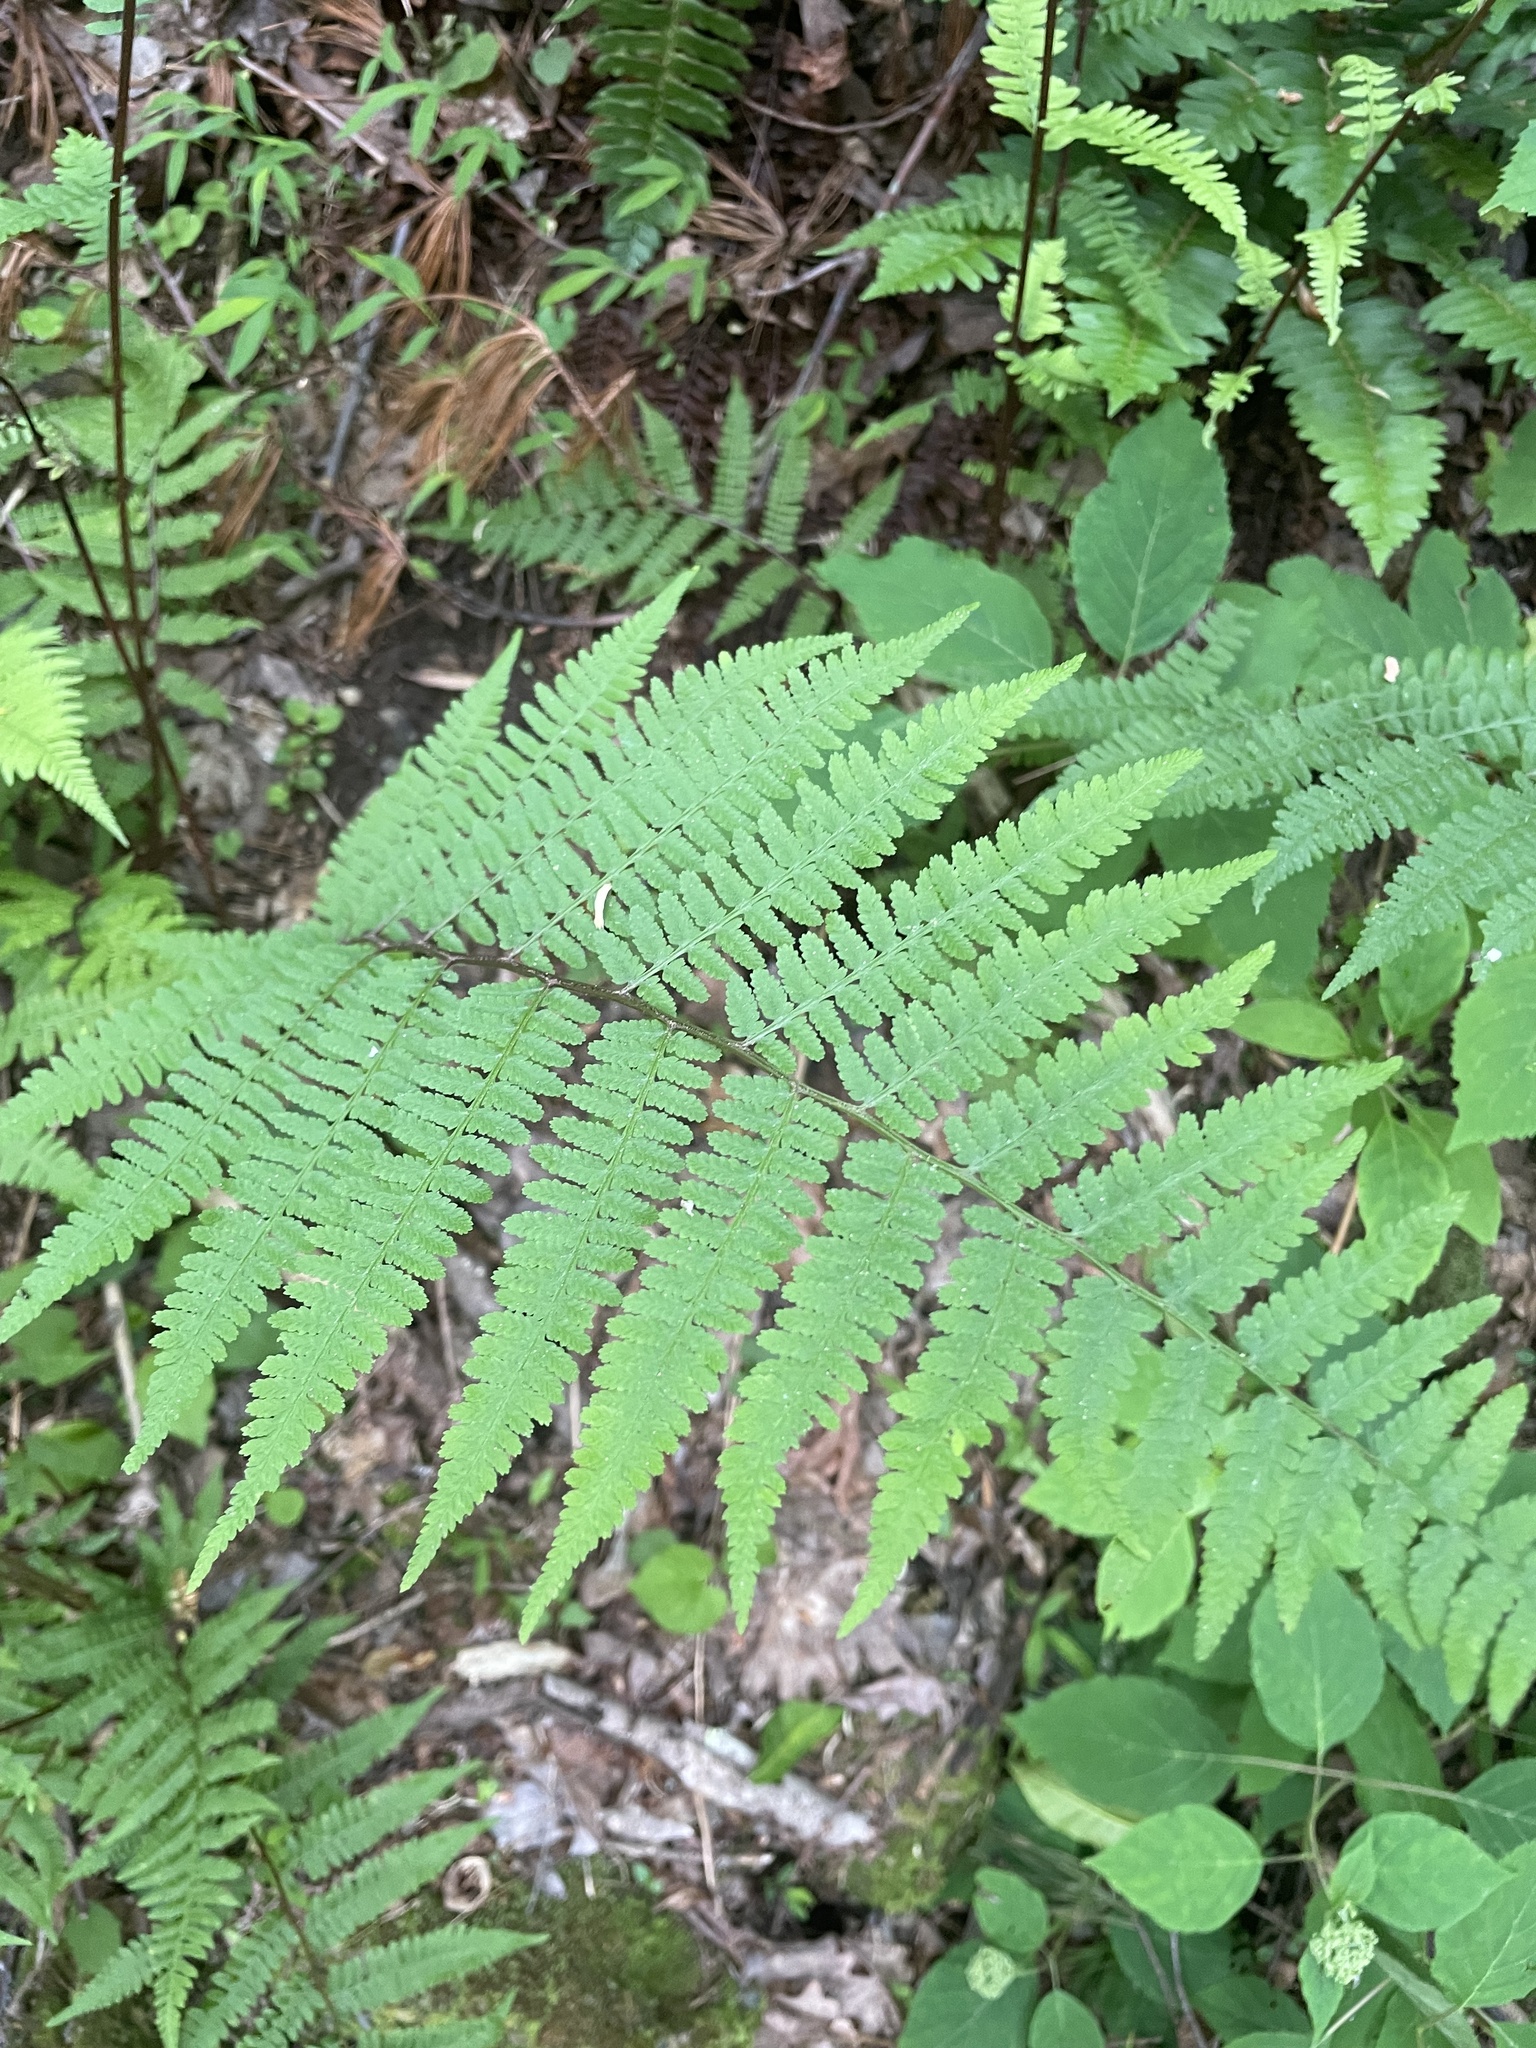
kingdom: Plantae
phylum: Tracheophyta
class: Polypodiopsida
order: Polypodiales
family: Athyriaceae
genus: Athyrium
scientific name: Athyrium asplenioides
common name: Southern lady fern
